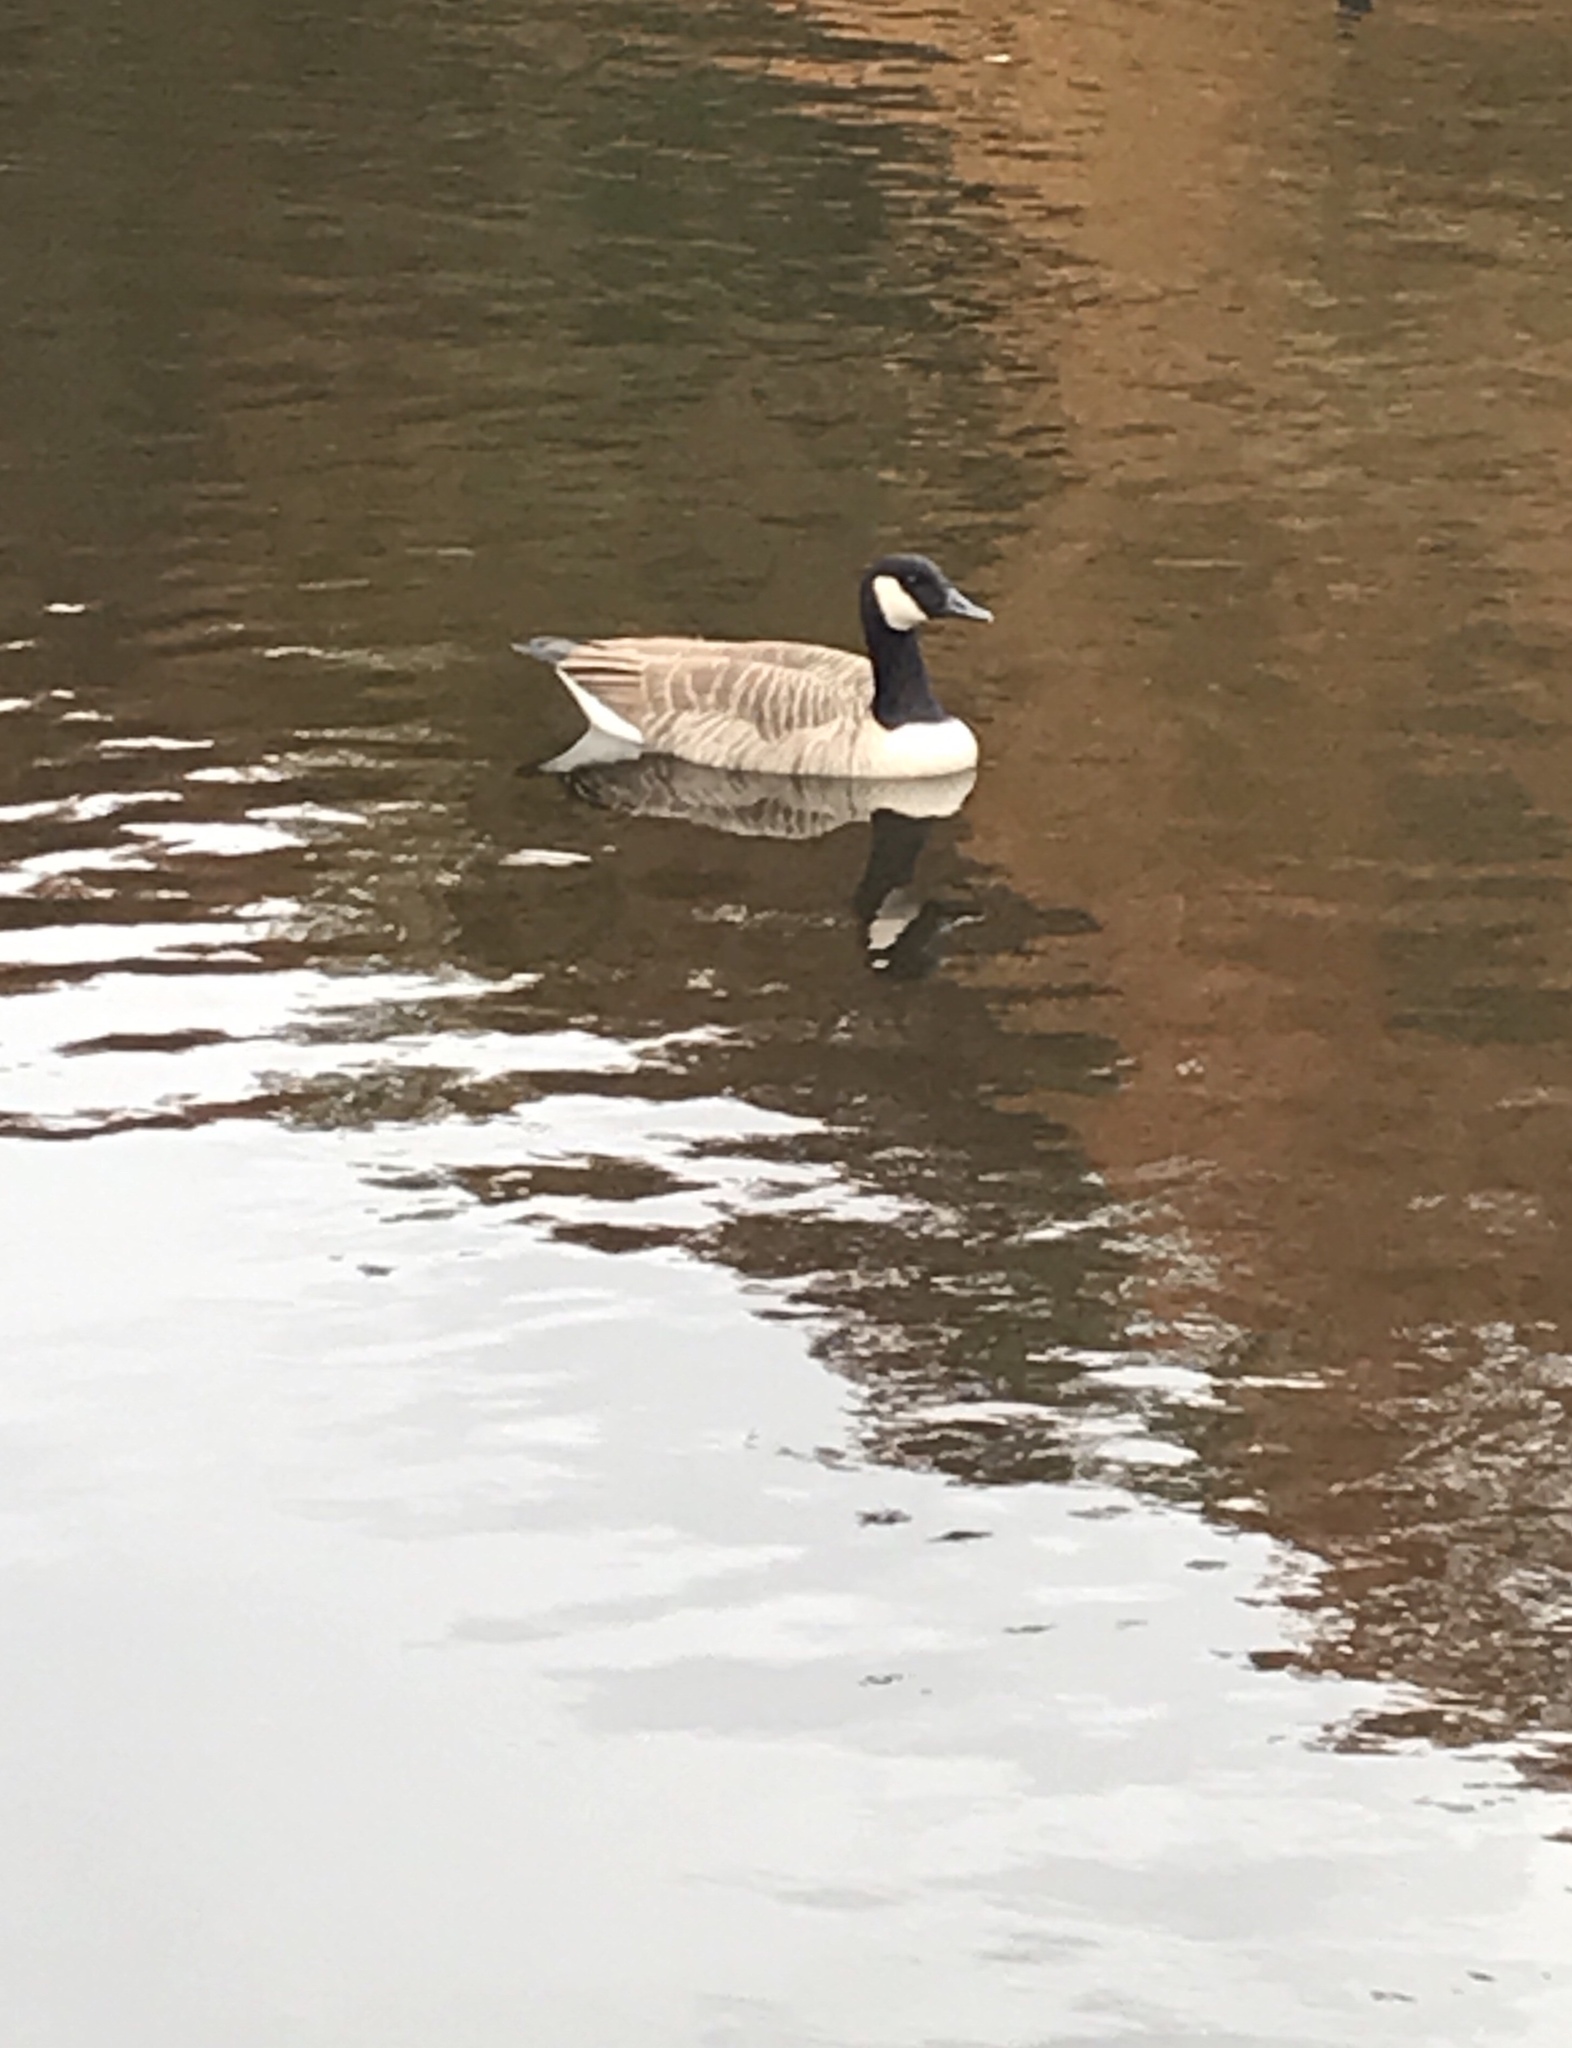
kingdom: Animalia
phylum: Chordata
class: Aves
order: Anseriformes
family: Anatidae
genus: Branta
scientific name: Branta canadensis
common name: Canada goose
